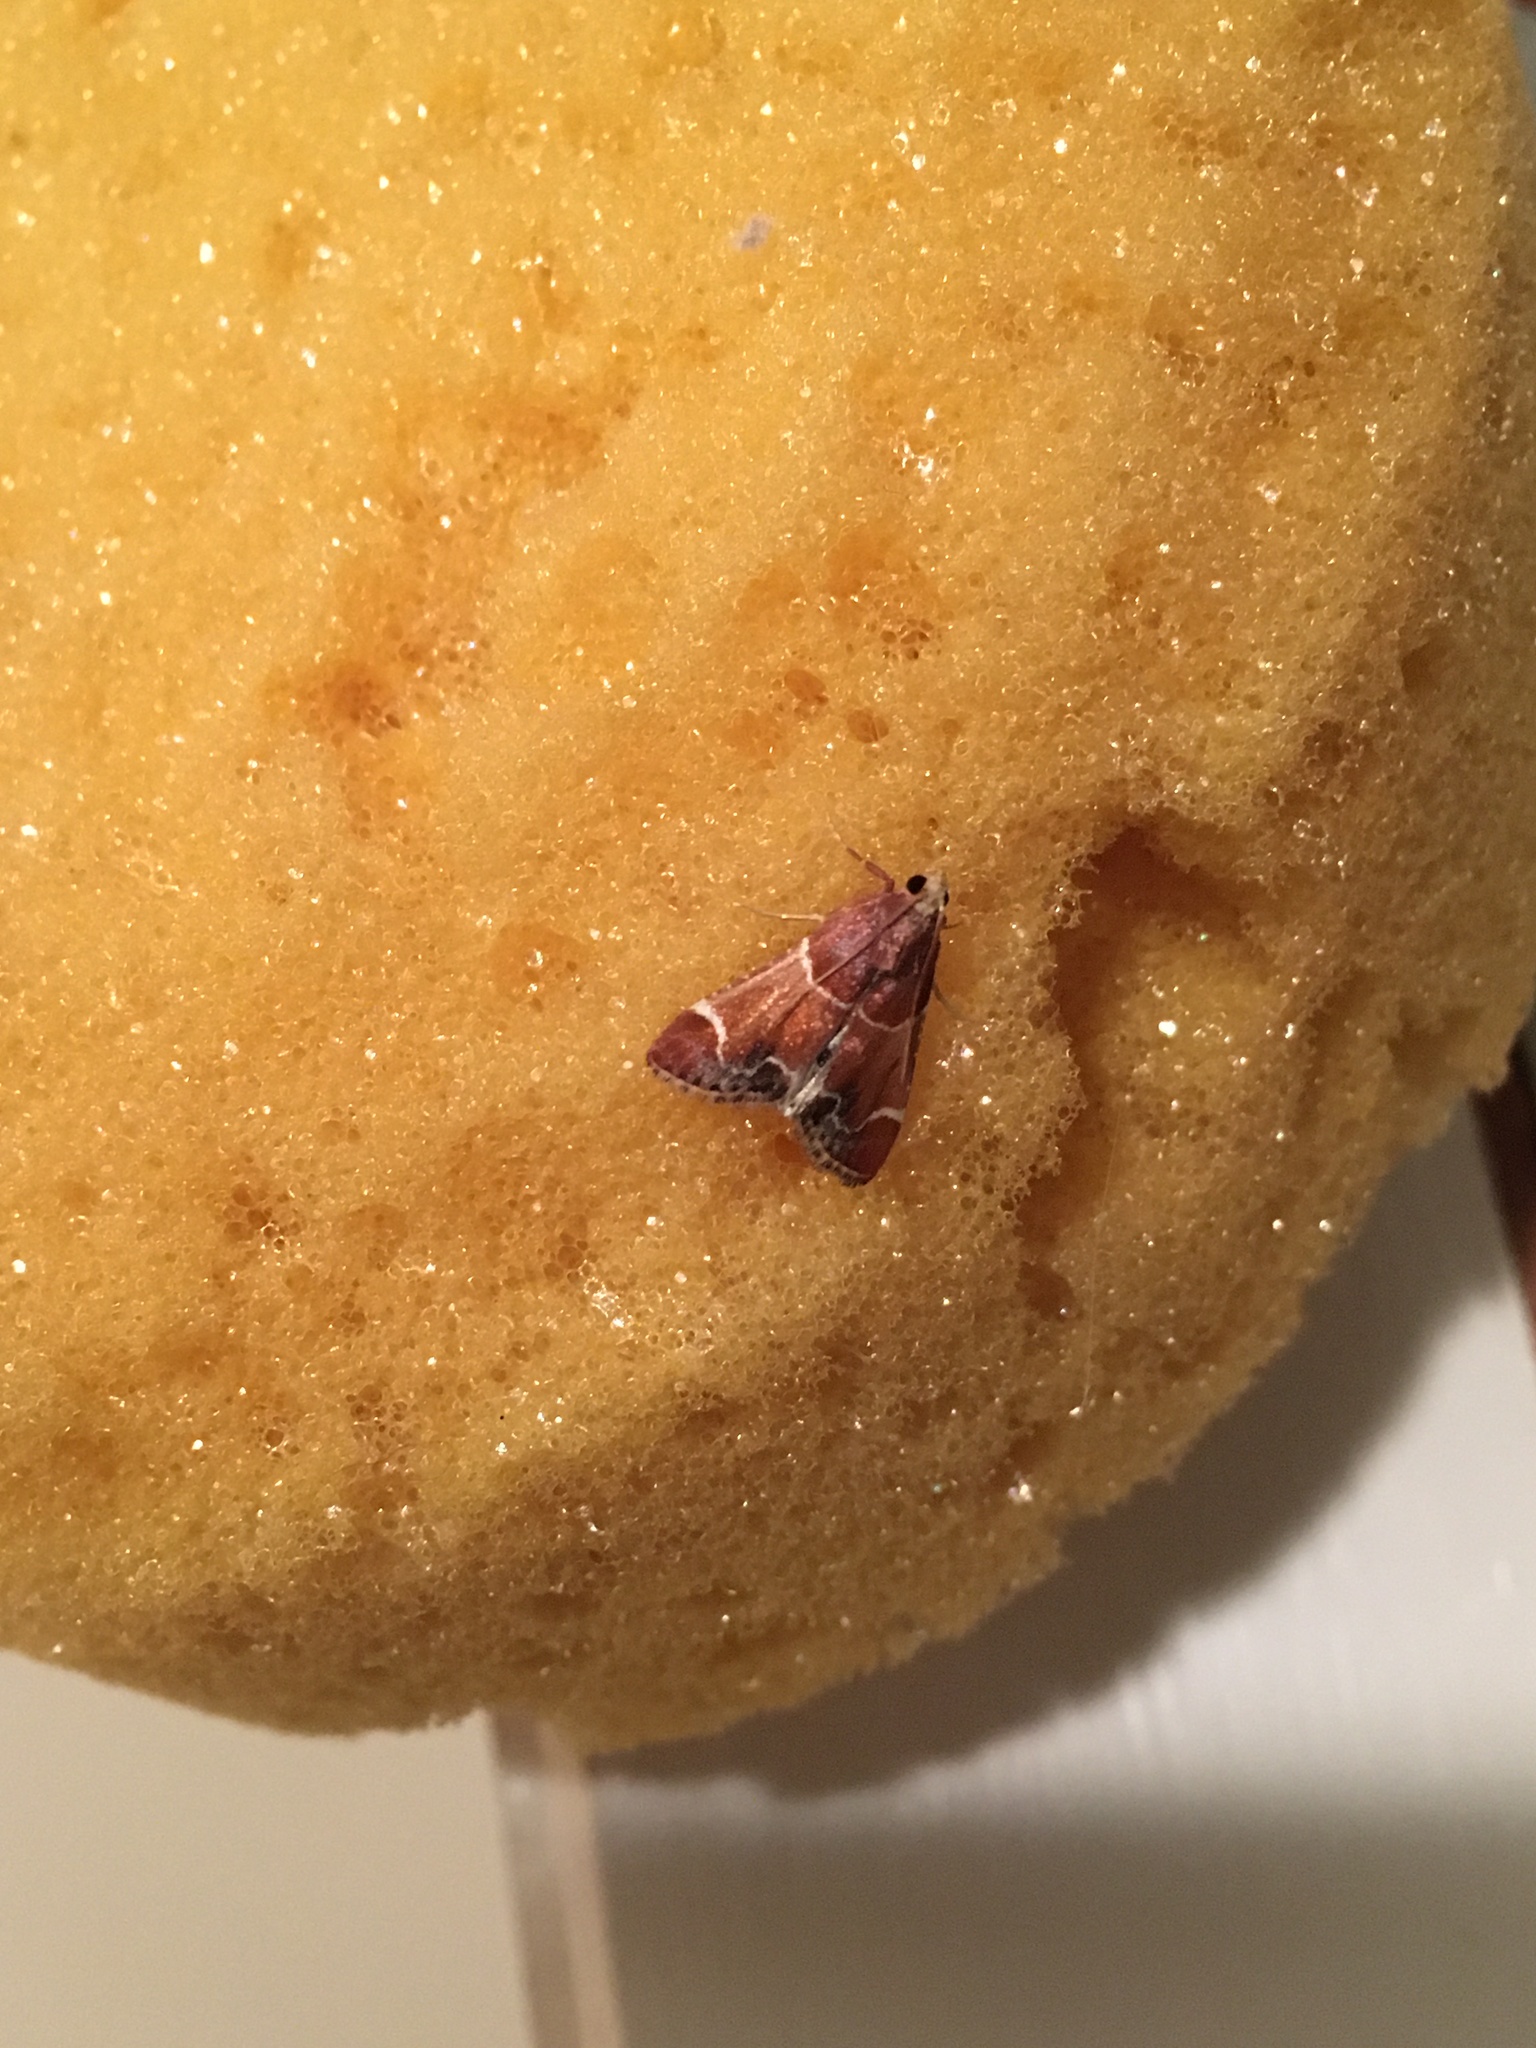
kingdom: Animalia
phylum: Arthropoda
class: Insecta
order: Lepidoptera
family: Pyralidae
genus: Pyralis
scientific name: Pyralis farinalis
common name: Meal moth
